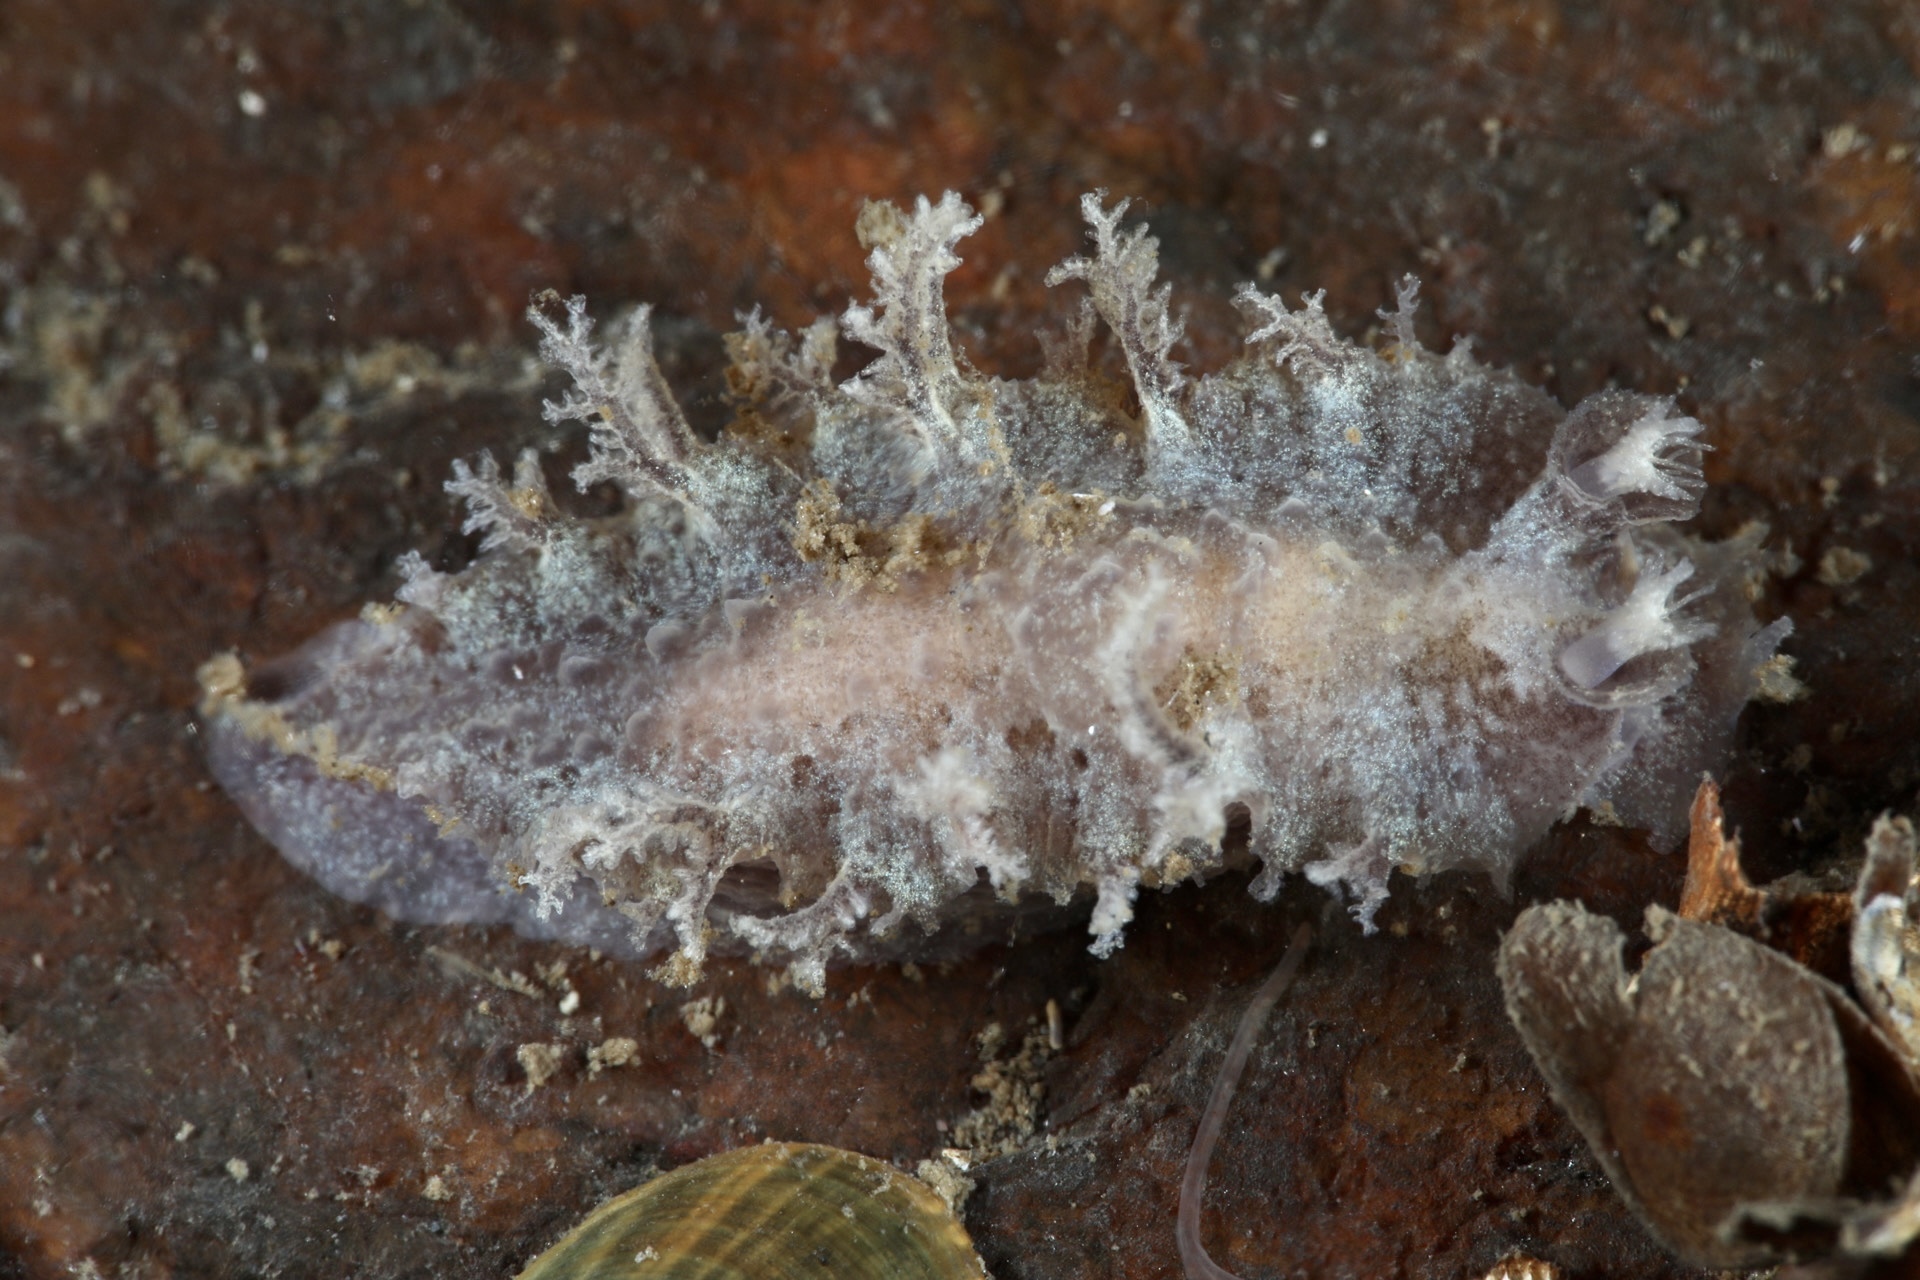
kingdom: Animalia
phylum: Mollusca
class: Gastropoda
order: Nudibranchia
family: Tritoniidae
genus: Duvaucelia
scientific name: Duvaucelia plebeia
